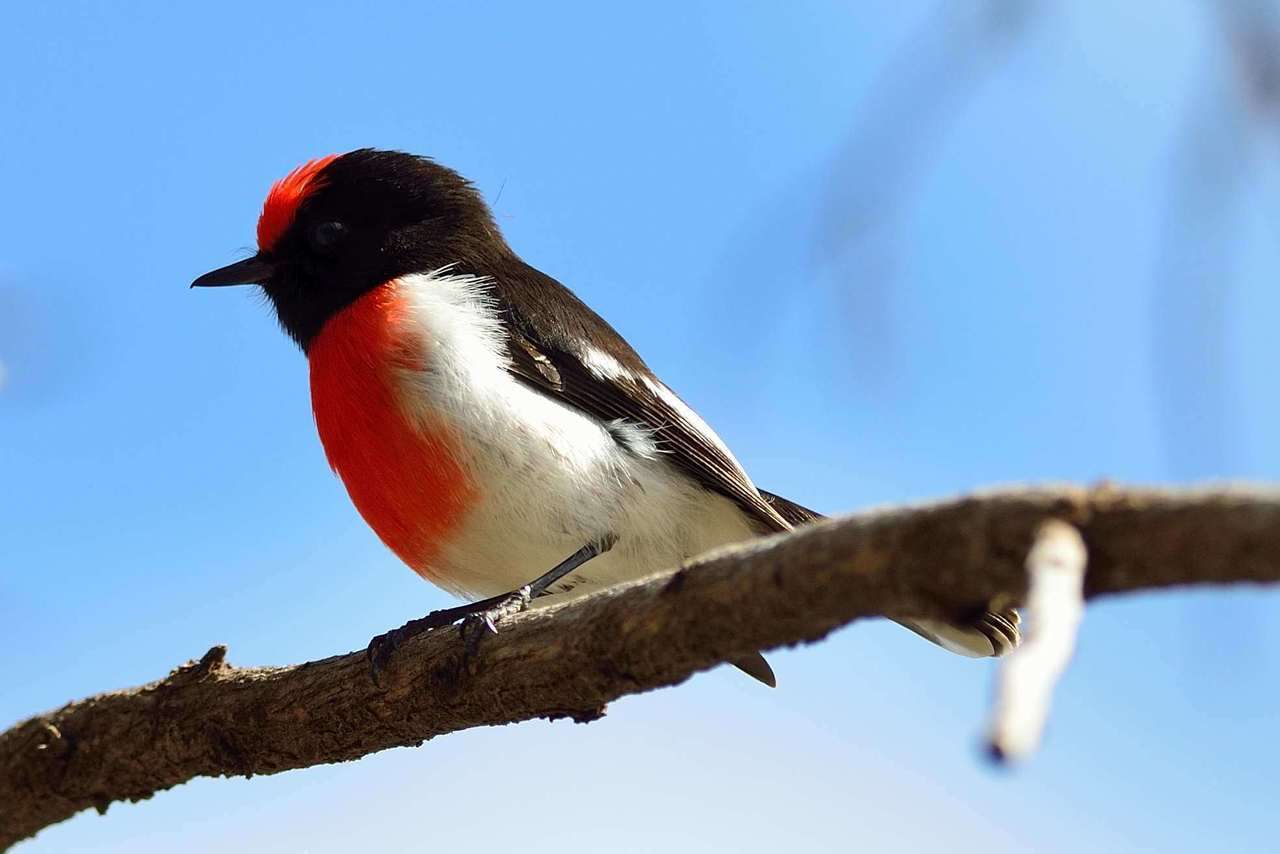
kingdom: Animalia
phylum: Chordata
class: Aves
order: Passeriformes
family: Petroicidae
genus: Petroica
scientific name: Petroica goodenovii
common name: Red-capped robin
